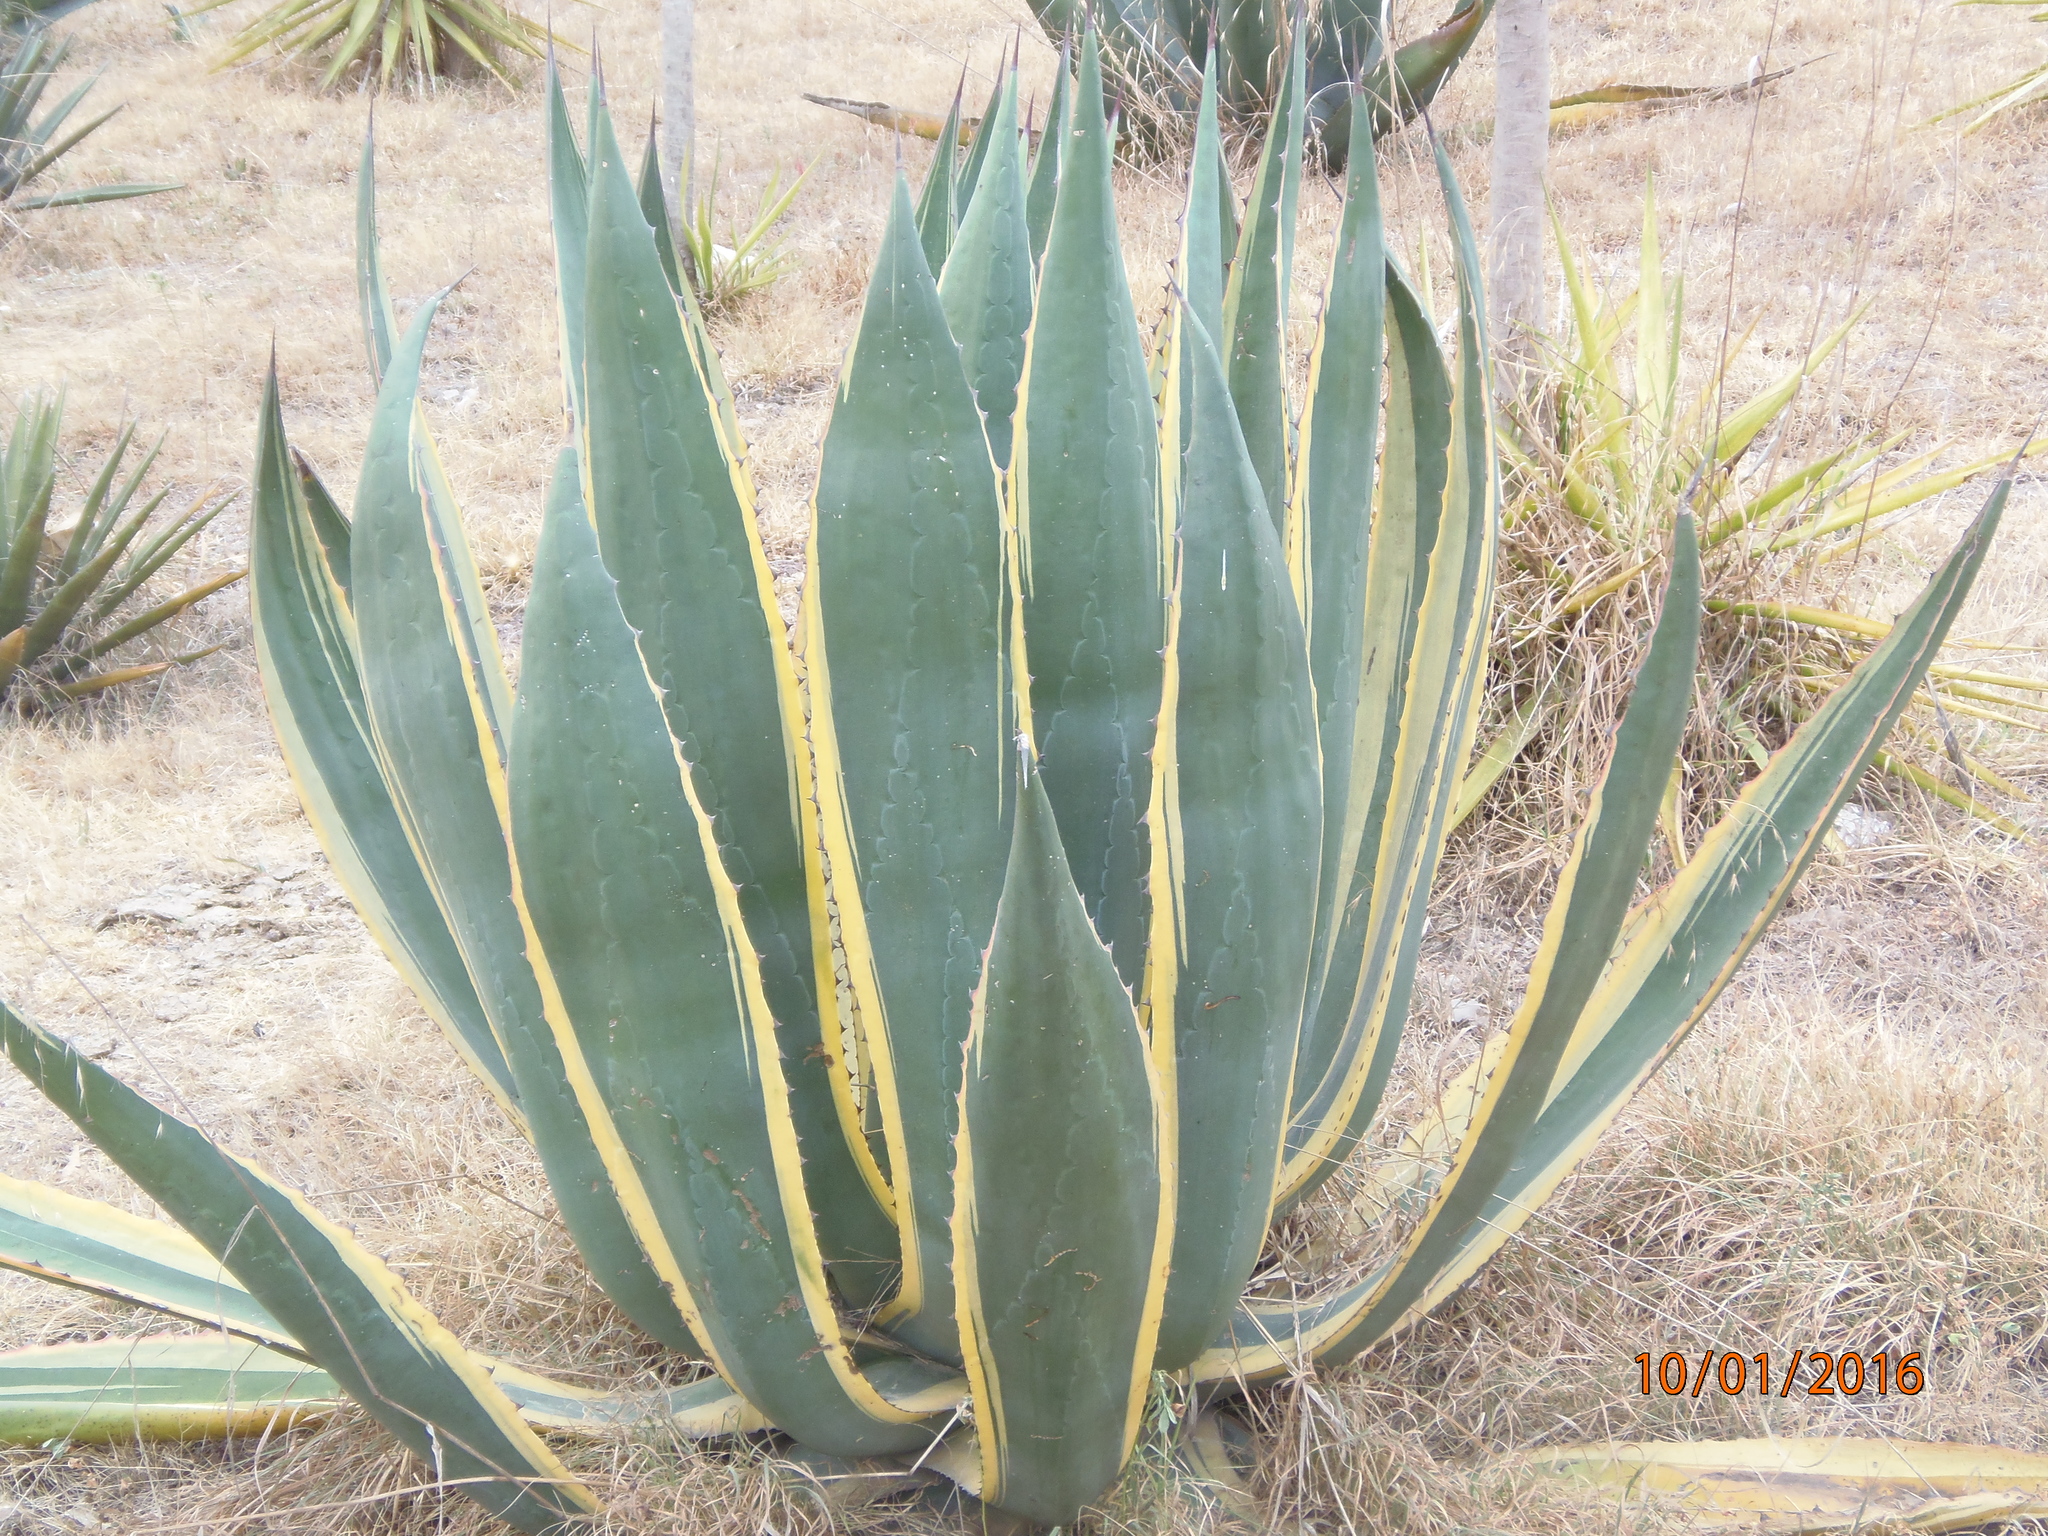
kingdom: Plantae
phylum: Tracheophyta
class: Liliopsida
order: Asparagales
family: Asparagaceae
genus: Agave
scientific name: Agave americana
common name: Centuryplant
